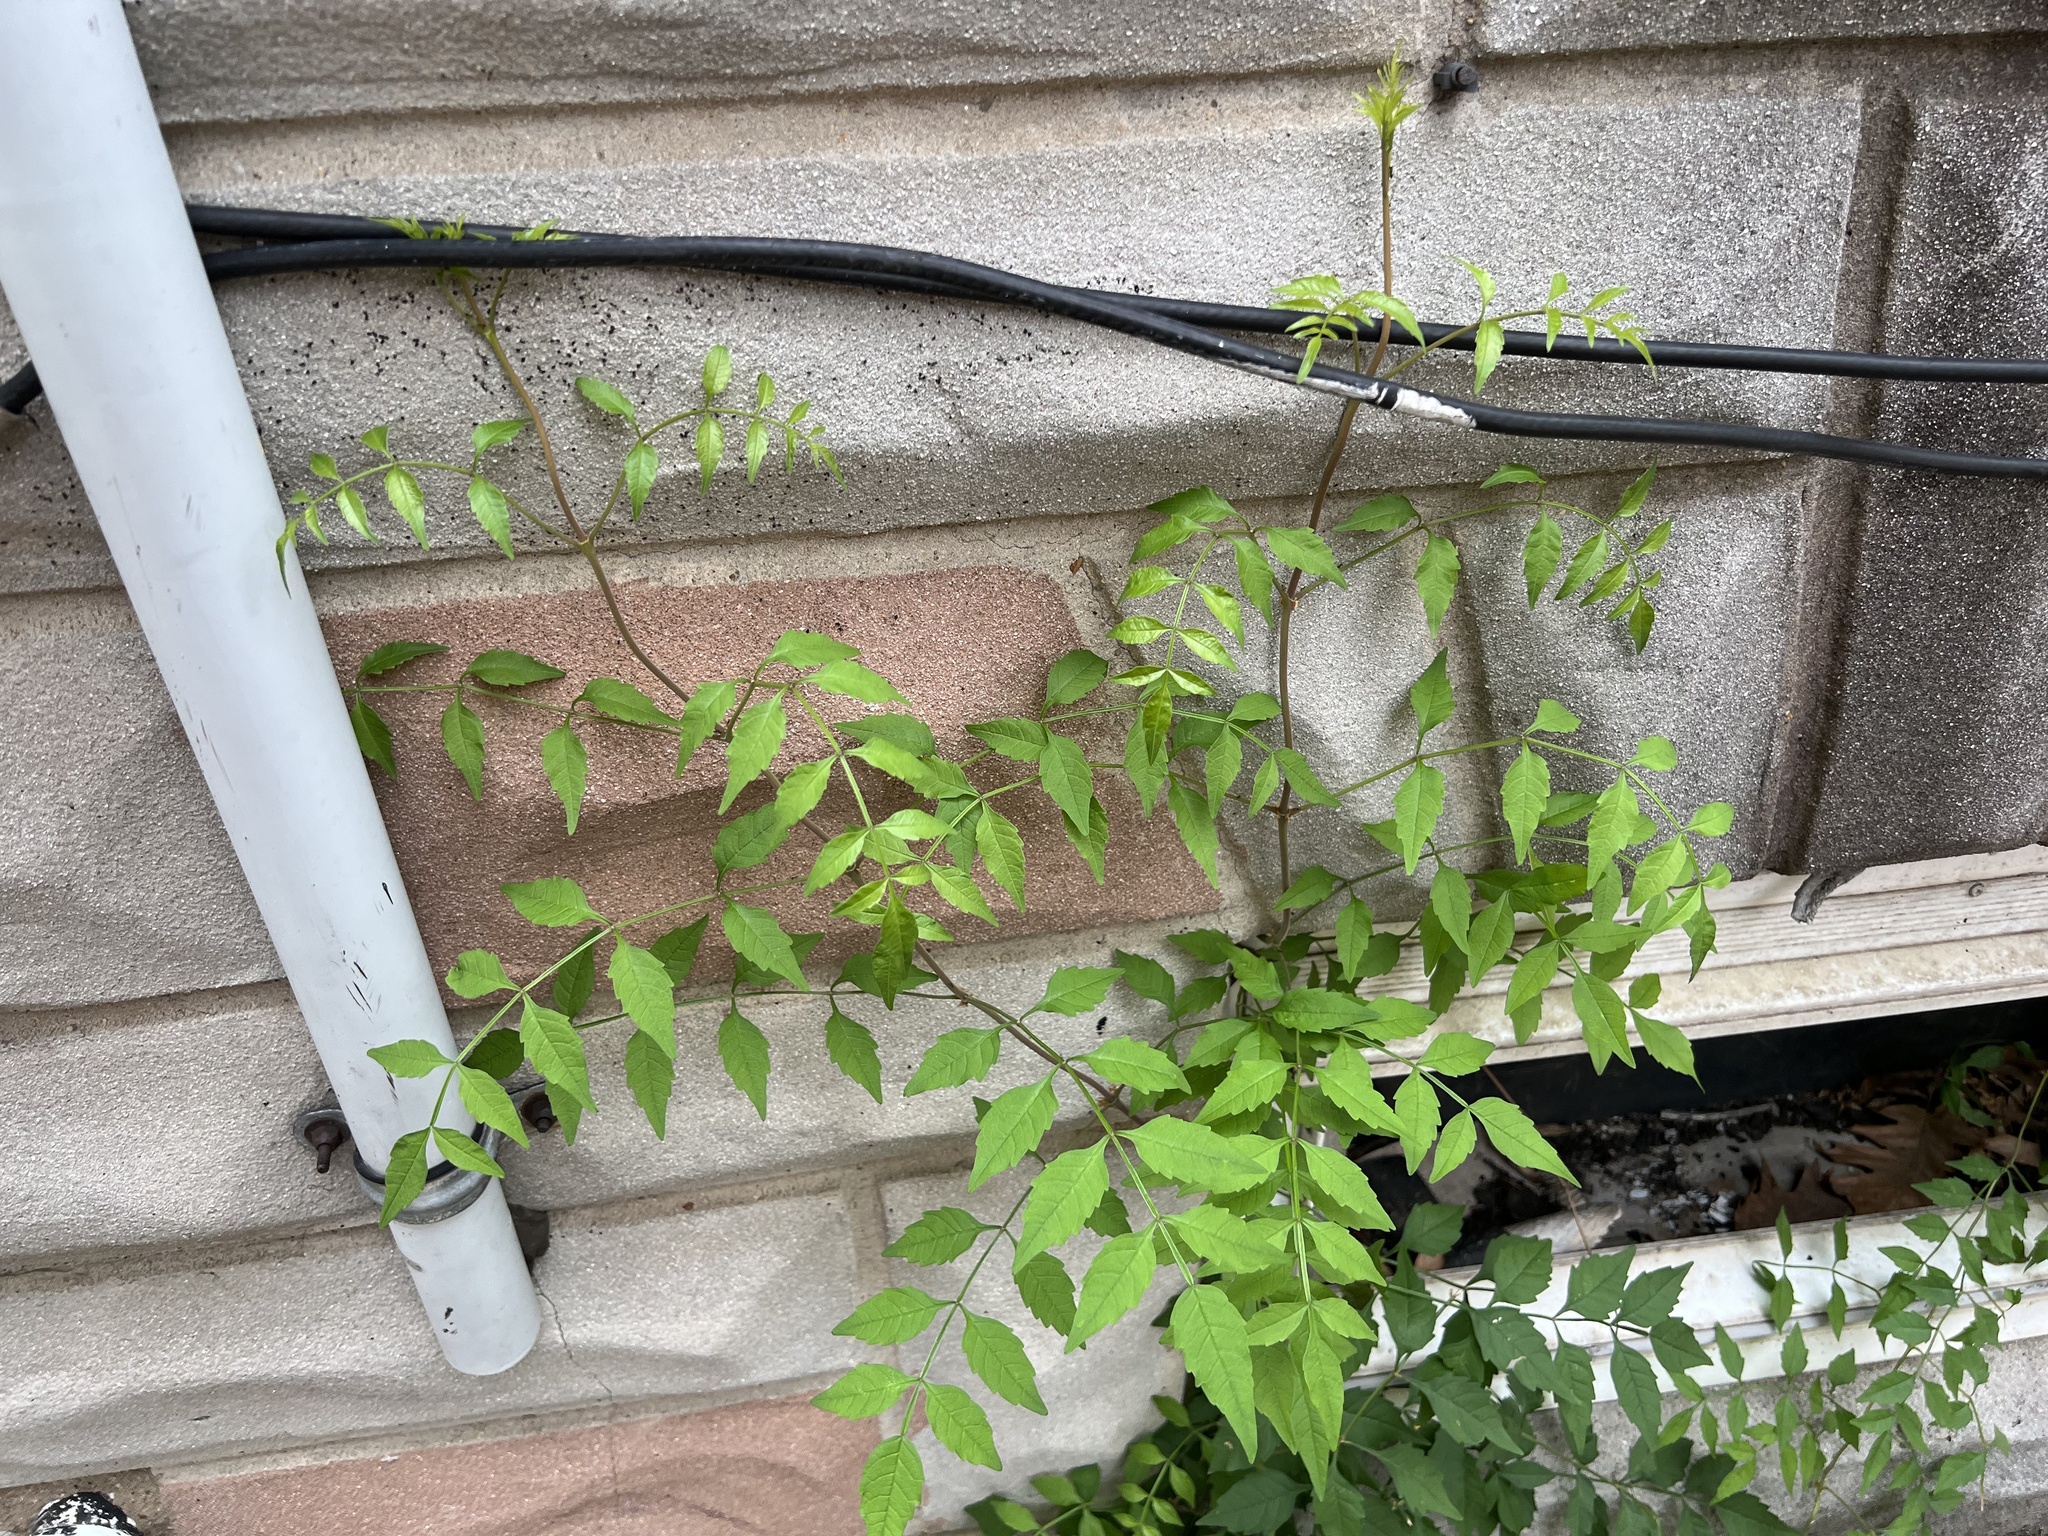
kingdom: Plantae
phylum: Tracheophyta
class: Magnoliopsida
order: Lamiales
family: Bignoniaceae
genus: Campsis
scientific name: Campsis radicans
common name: Trumpet-creeper
